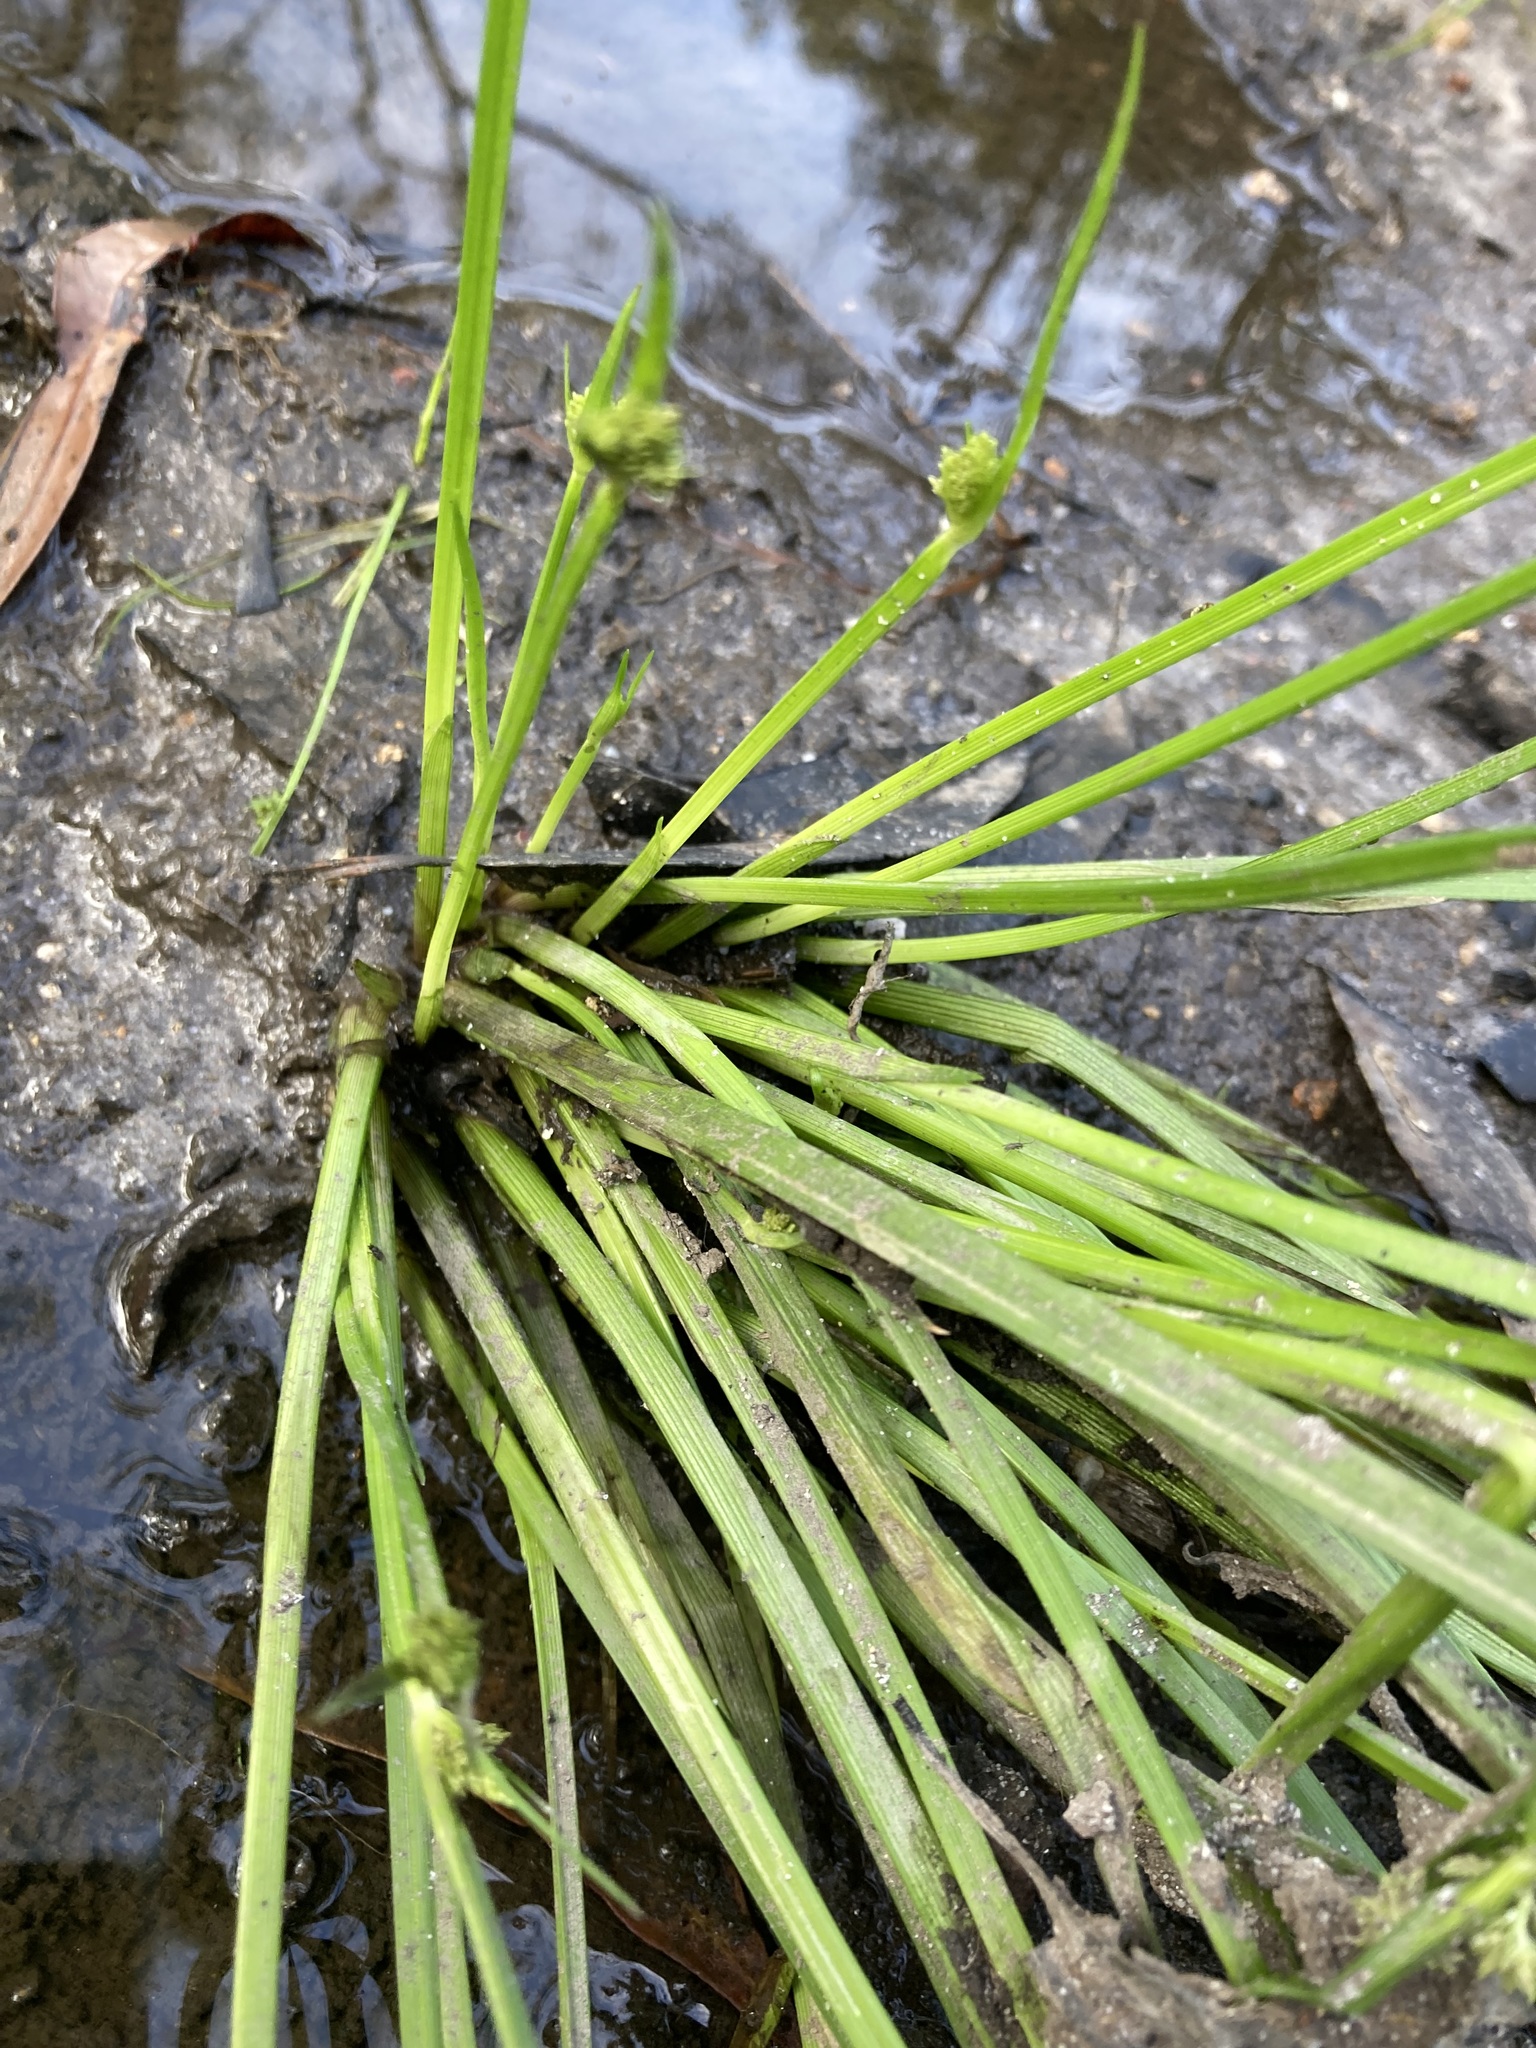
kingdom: Plantae
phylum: Tracheophyta
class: Liliopsida
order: Poales
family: Cyperaceae
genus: Cyperus
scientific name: Cyperus difformis
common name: Variable flatsedge
